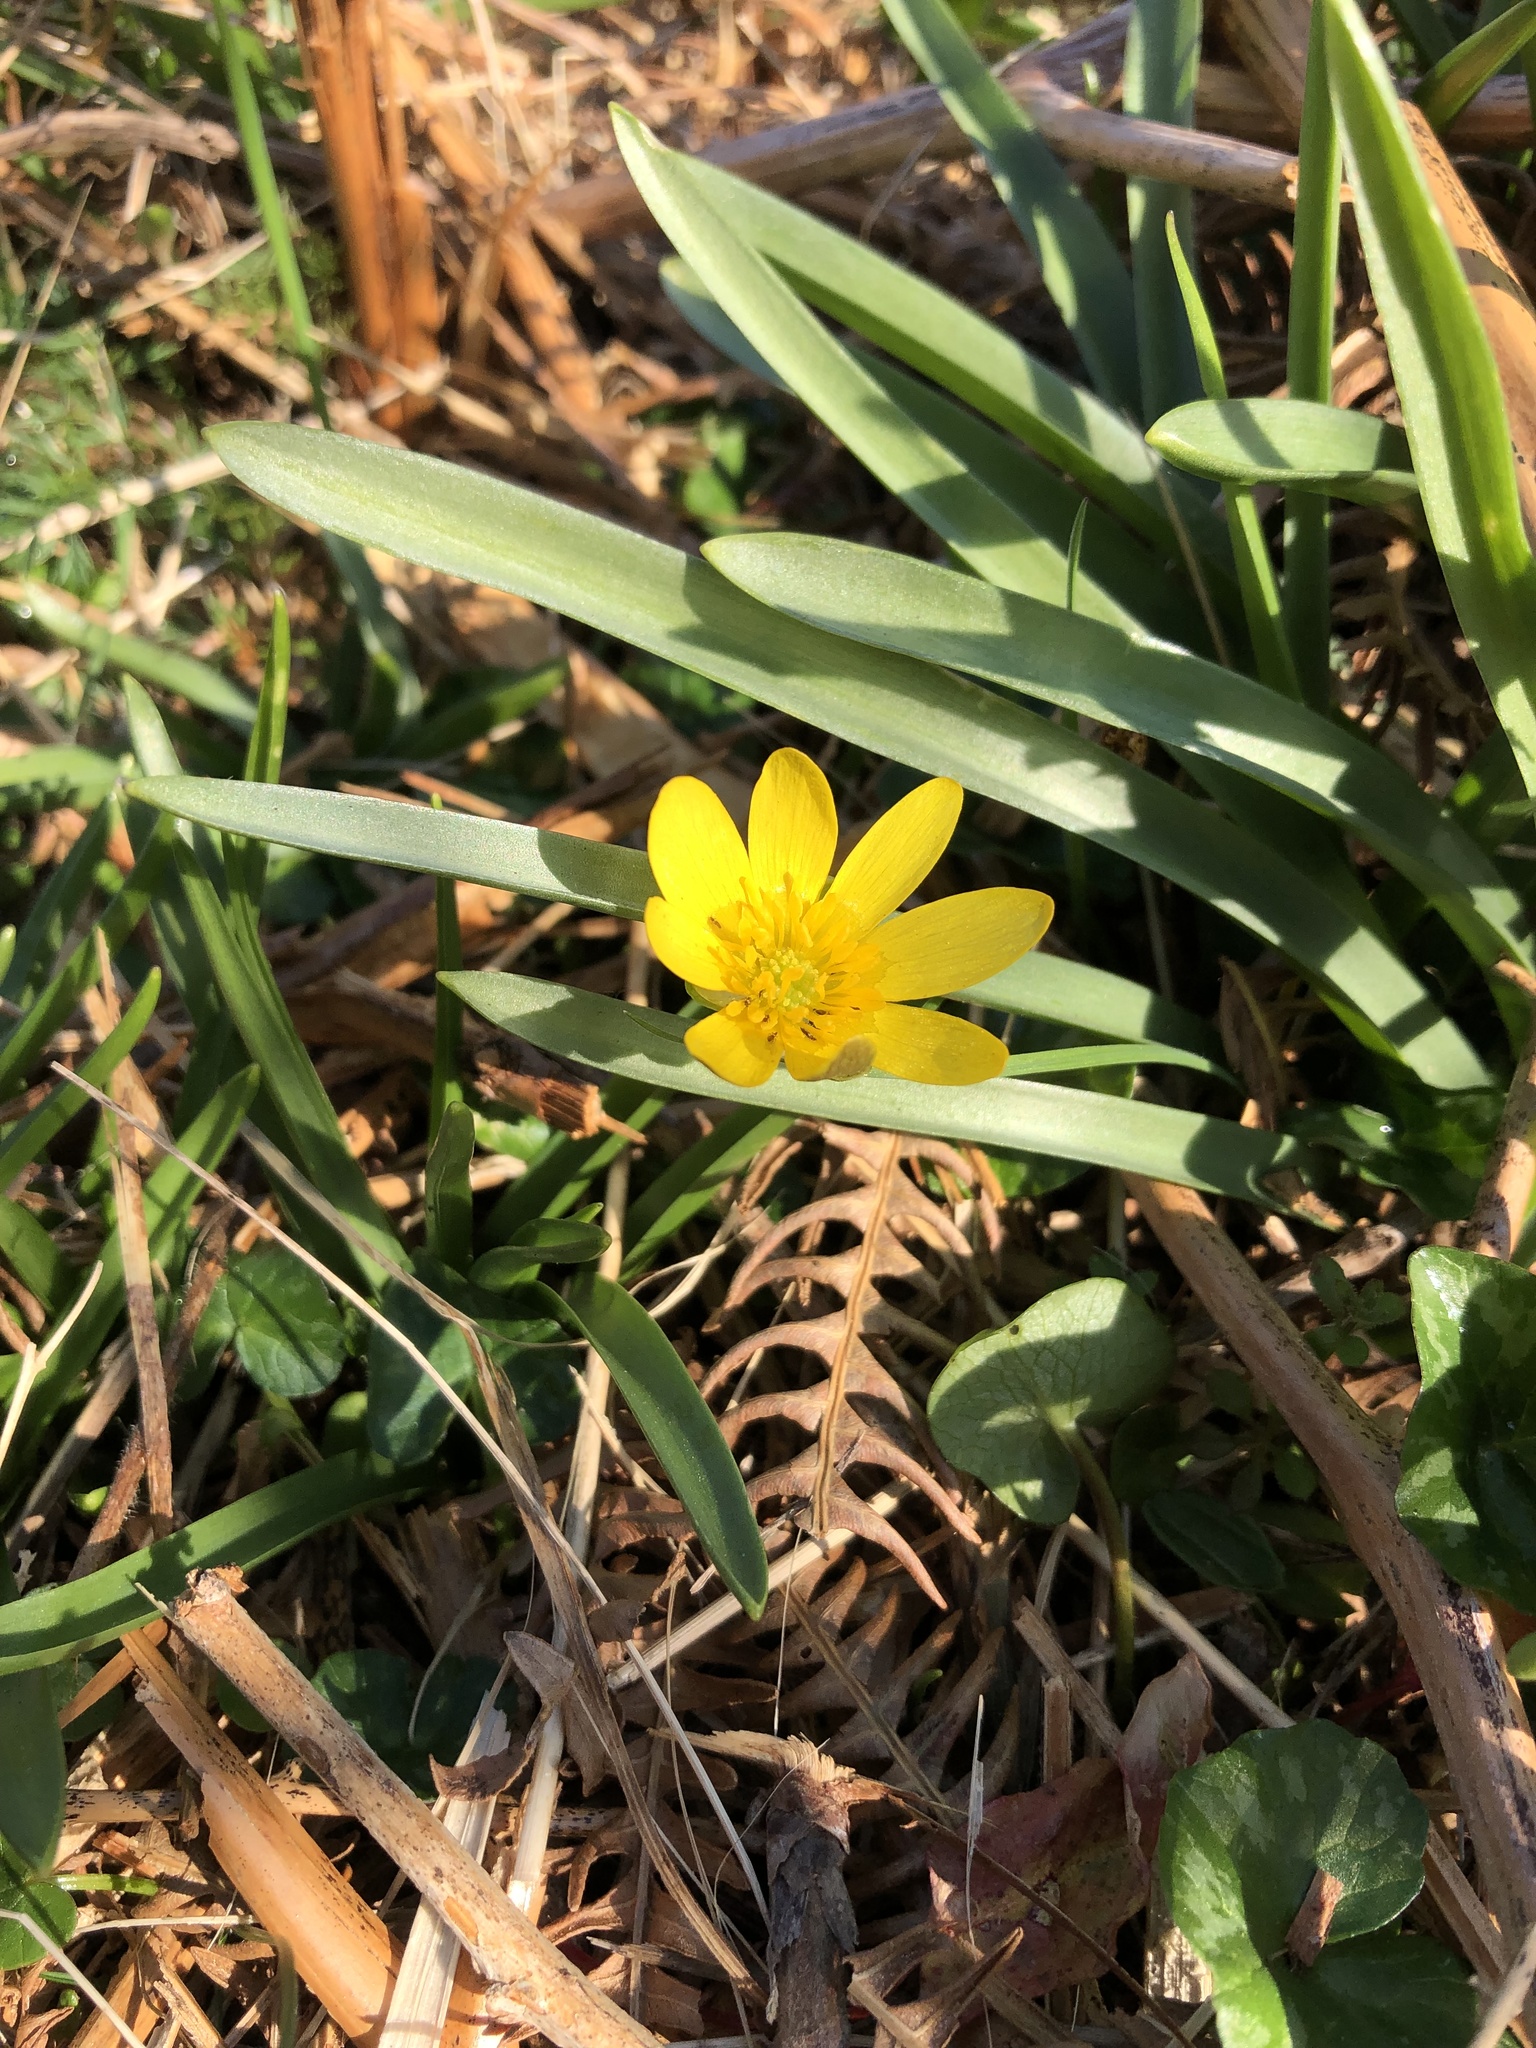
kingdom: Plantae
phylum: Tracheophyta
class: Magnoliopsida
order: Ranunculales
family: Ranunculaceae
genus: Ficaria
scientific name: Ficaria verna
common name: Lesser celandine
